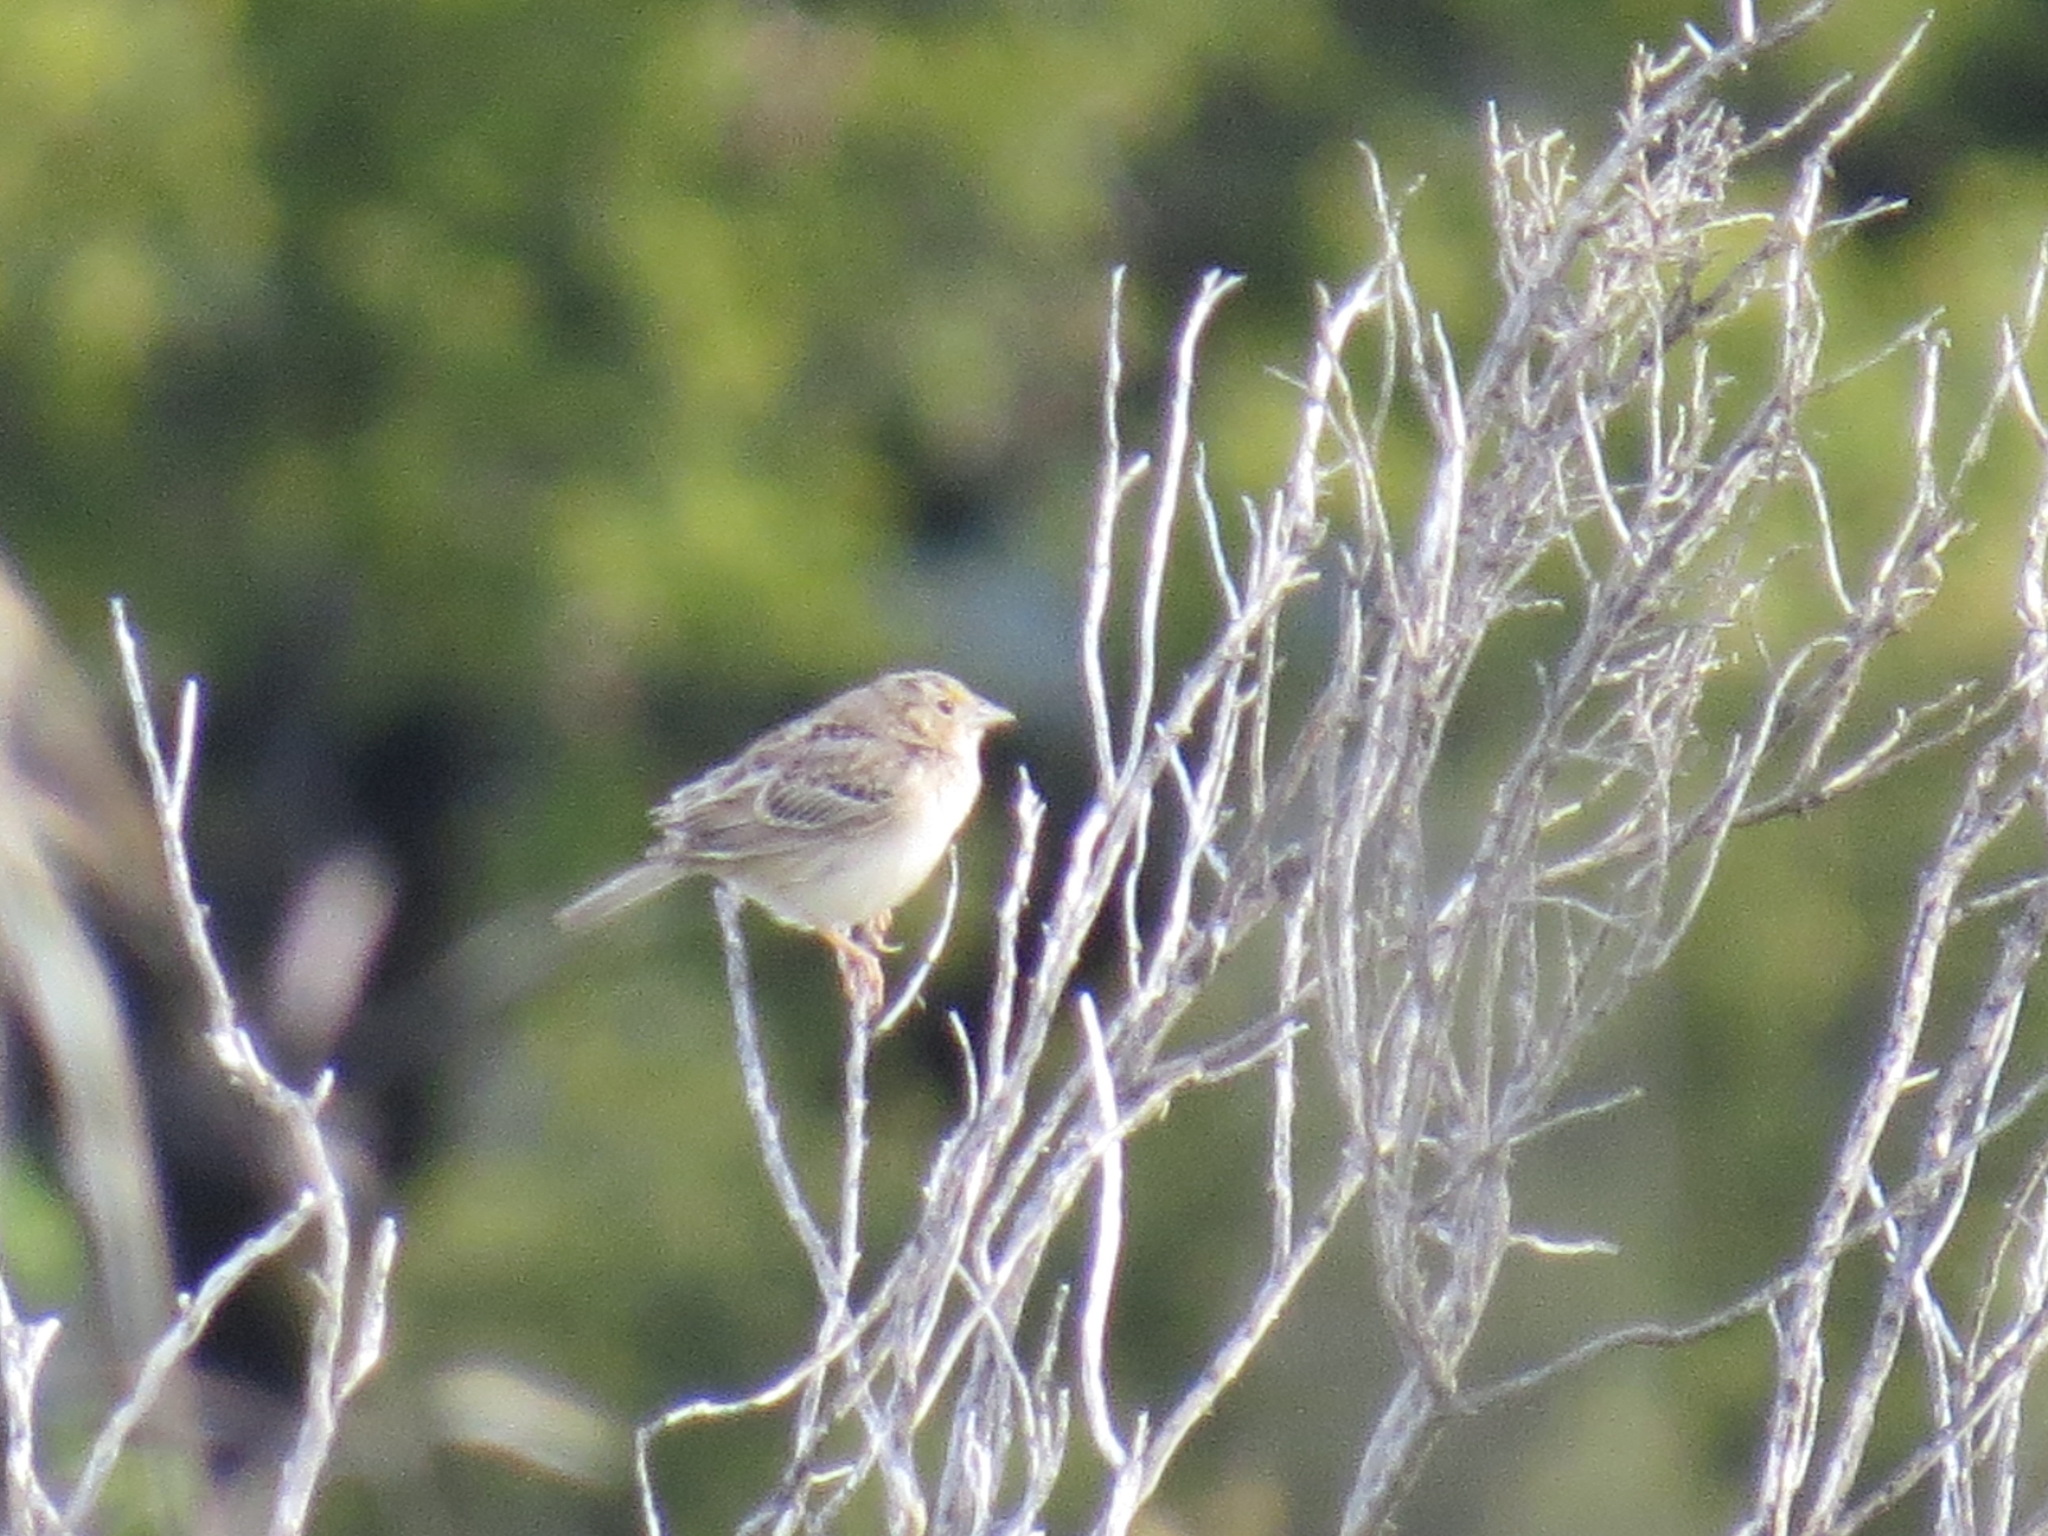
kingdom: Animalia
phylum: Chordata
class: Aves
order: Passeriformes
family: Passerellidae
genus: Ammodramus
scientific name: Ammodramus savannarum
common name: Grasshopper sparrow
